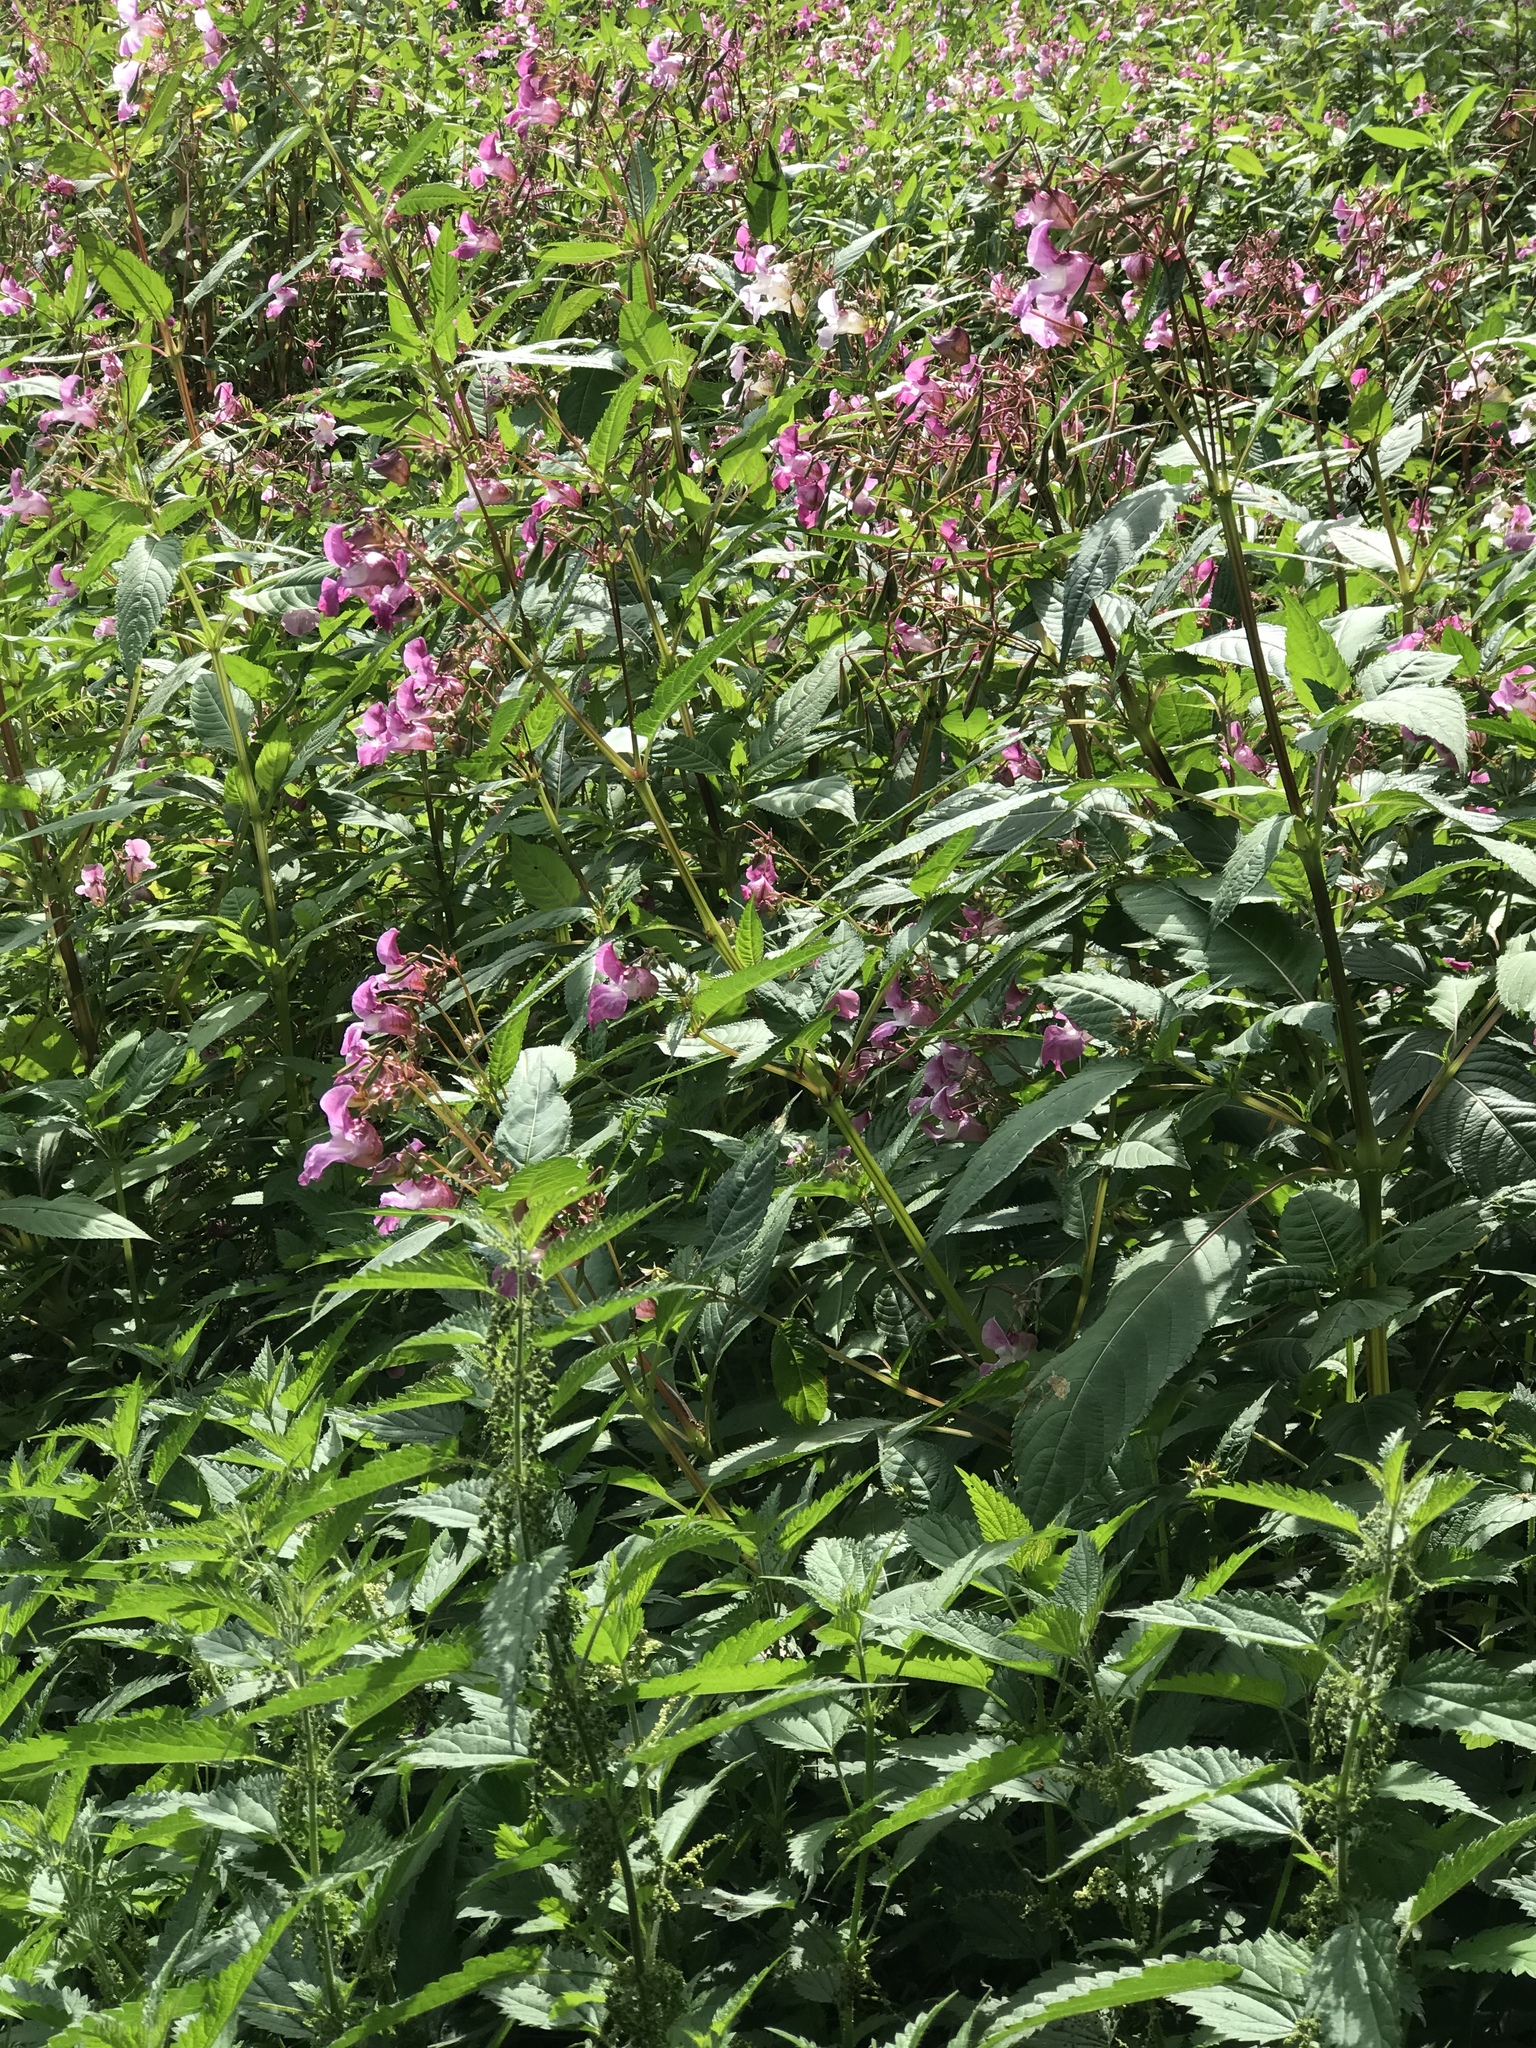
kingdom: Plantae
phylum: Tracheophyta
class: Magnoliopsida
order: Ericales
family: Balsaminaceae
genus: Impatiens
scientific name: Impatiens glandulifera
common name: Himalayan balsam
